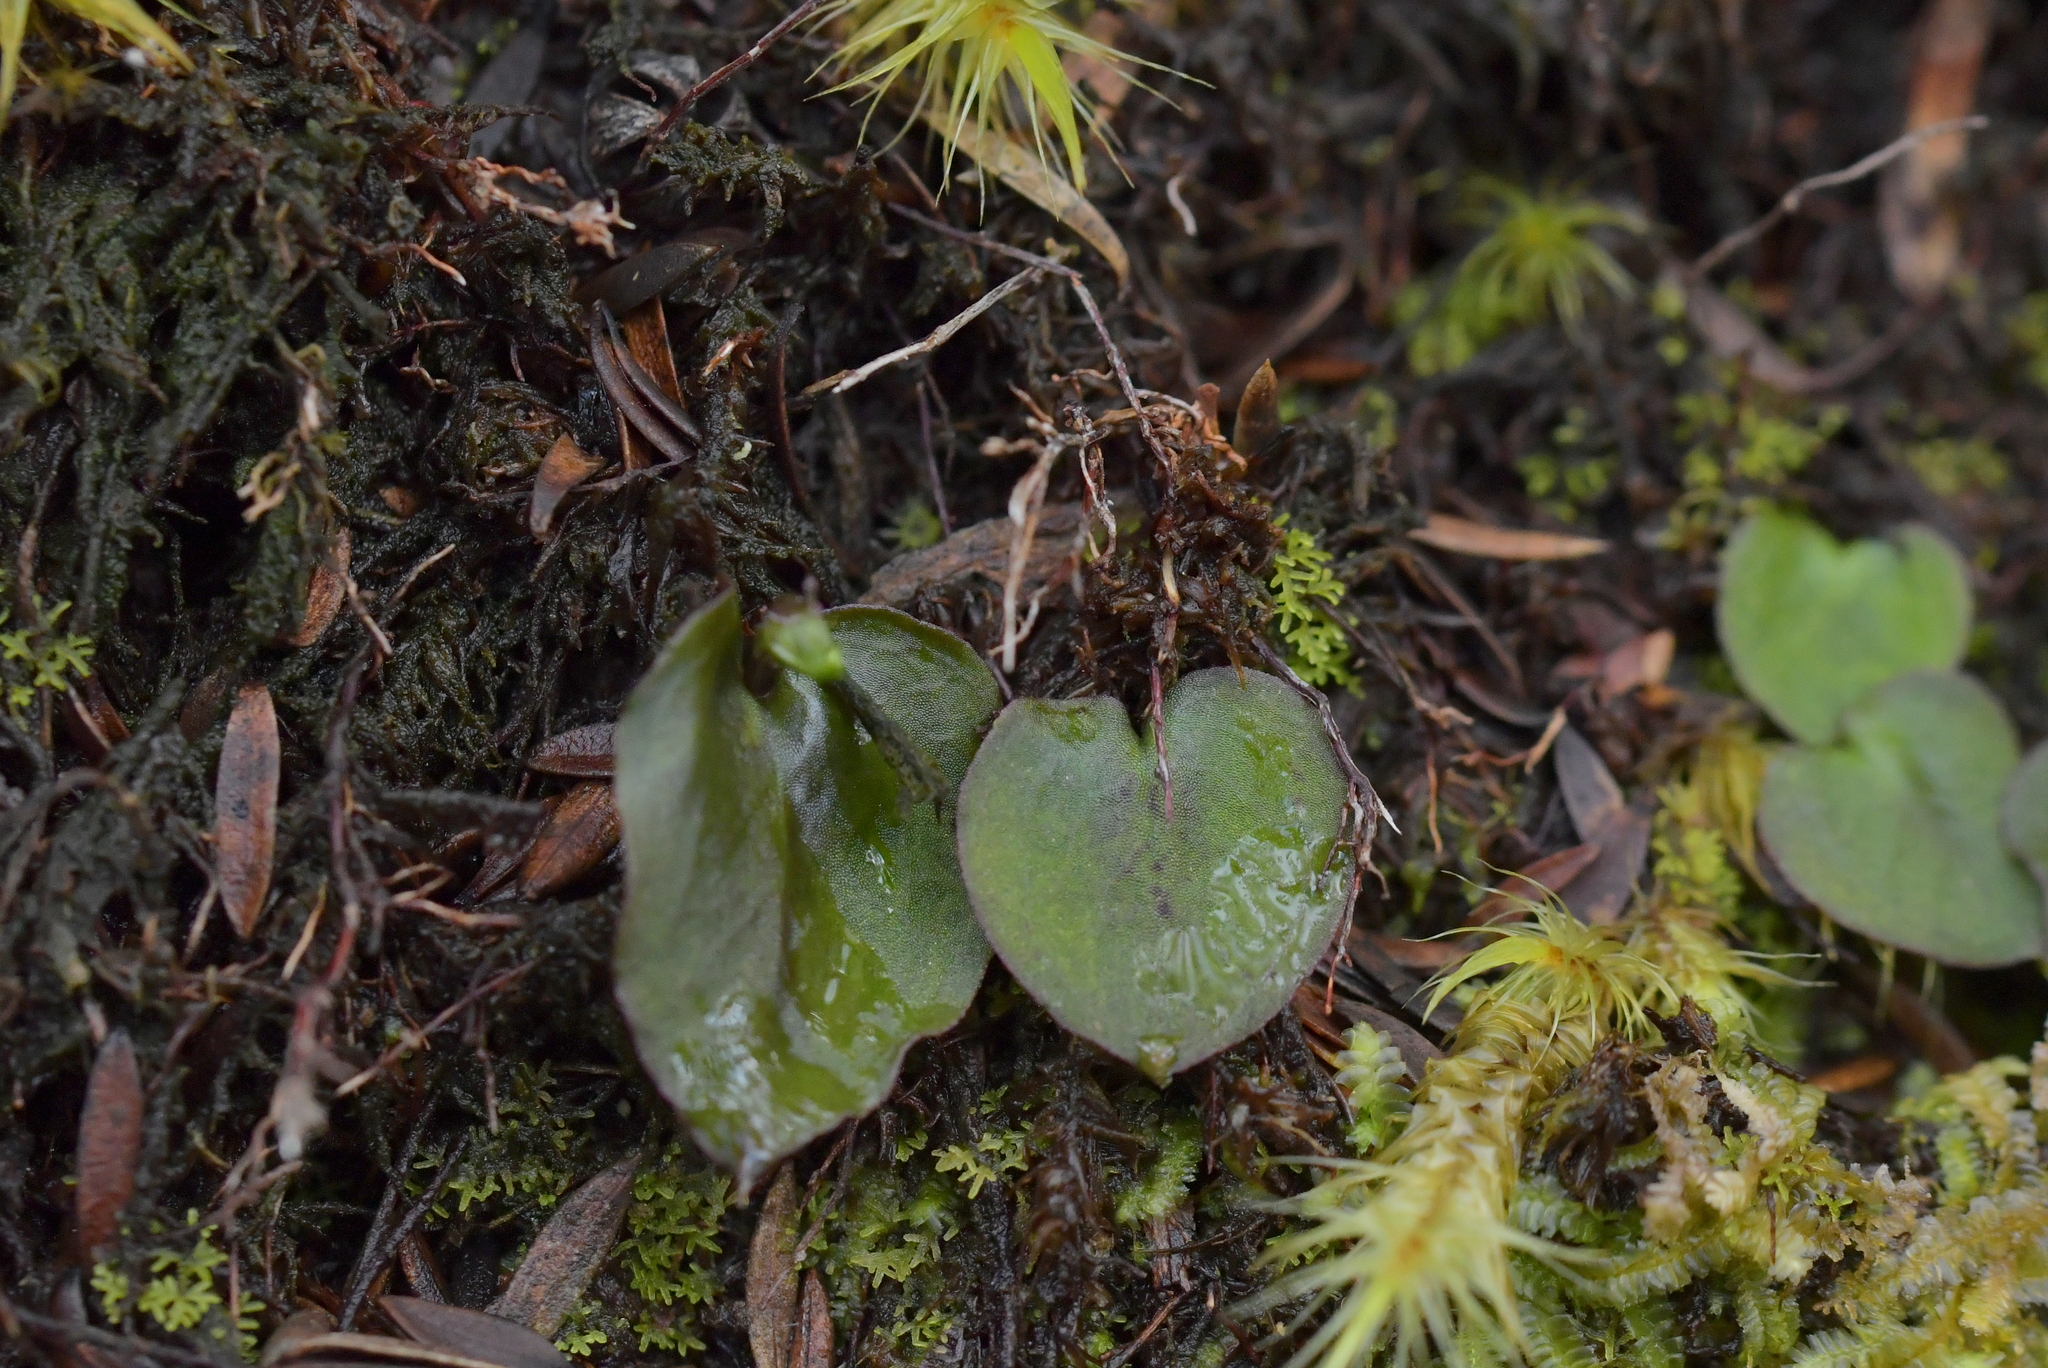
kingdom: Plantae
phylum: Tracheophyta
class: Liliopsida
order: Asparagales
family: Orchidaceae
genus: Corybas
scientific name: Corybas oblongus
